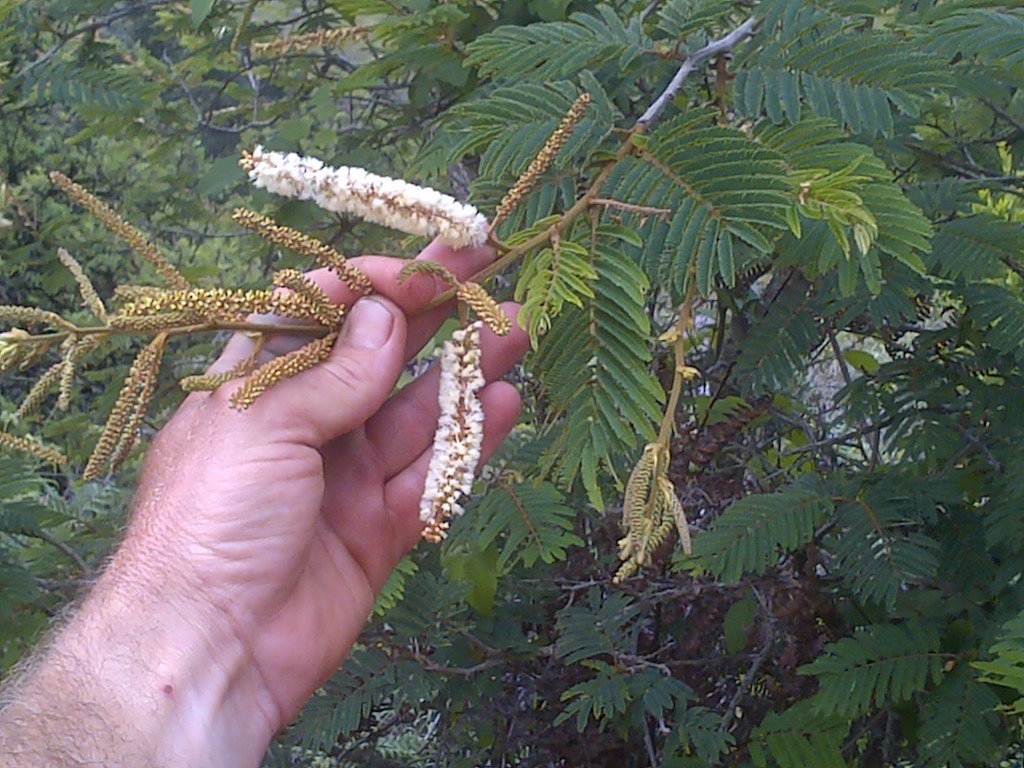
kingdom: Plantae
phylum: Tracheophyta
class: Magnoliopsida
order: Fabales
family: Fabaceae
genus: Senegalia
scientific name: Senegalia ataxacantha
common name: Flame acacia
